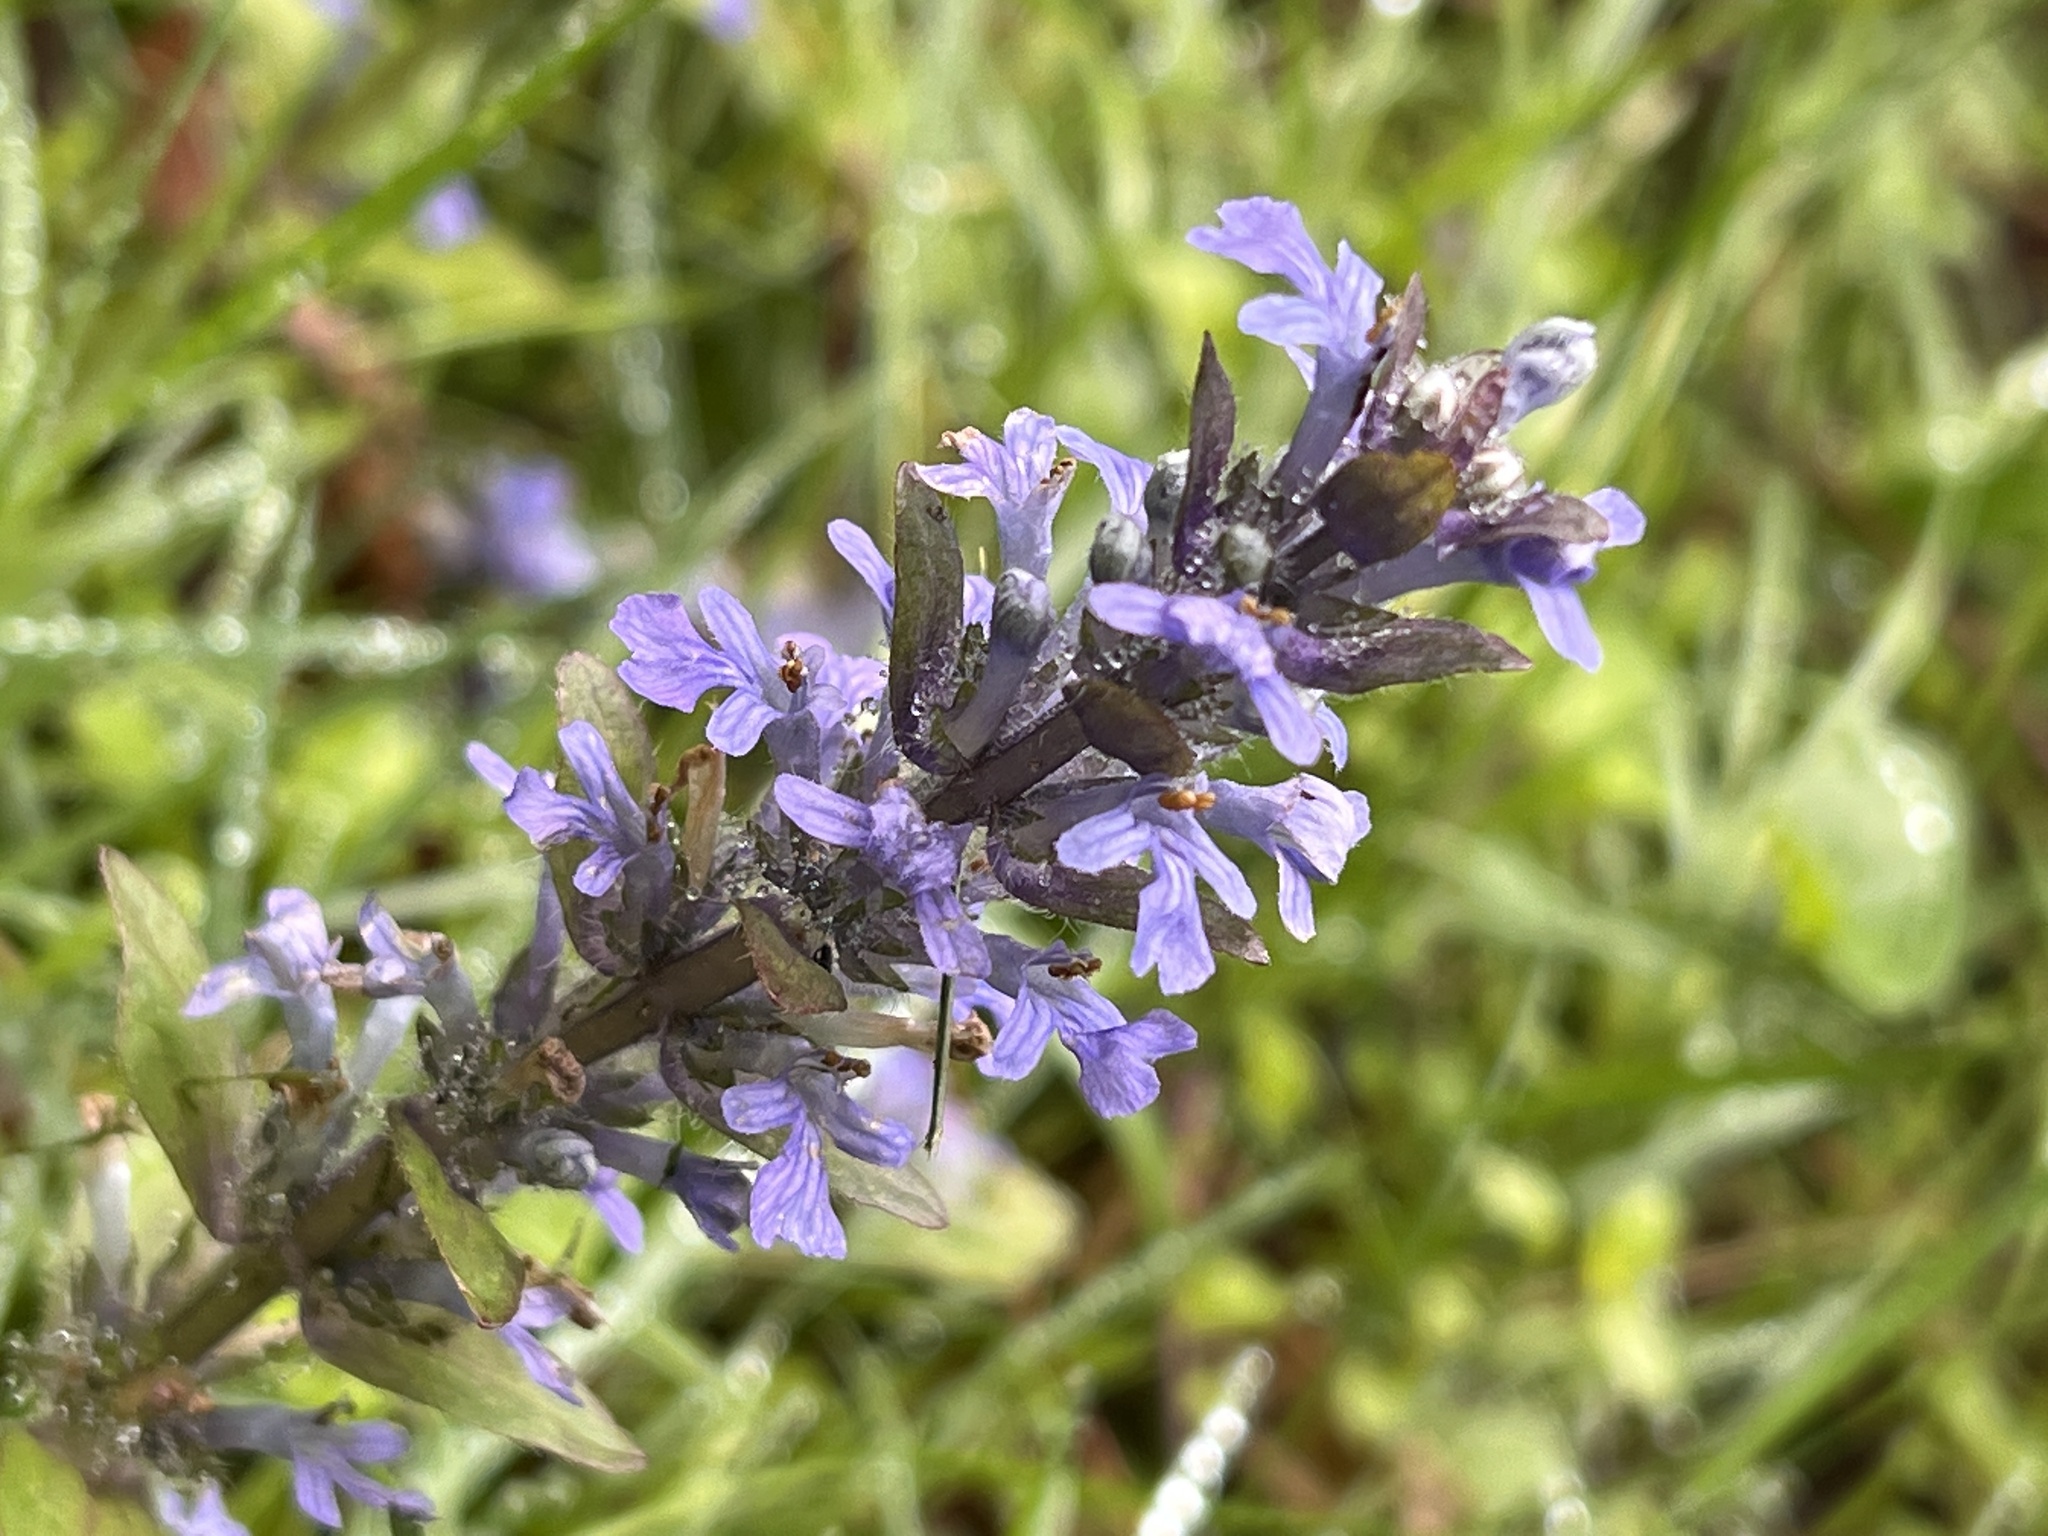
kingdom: Plantae
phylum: Tracheophyta
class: Magnoliopsida
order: Lamiales
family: Lamiaceae
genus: Ajuga
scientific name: Ajuga reptans
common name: Bugle
